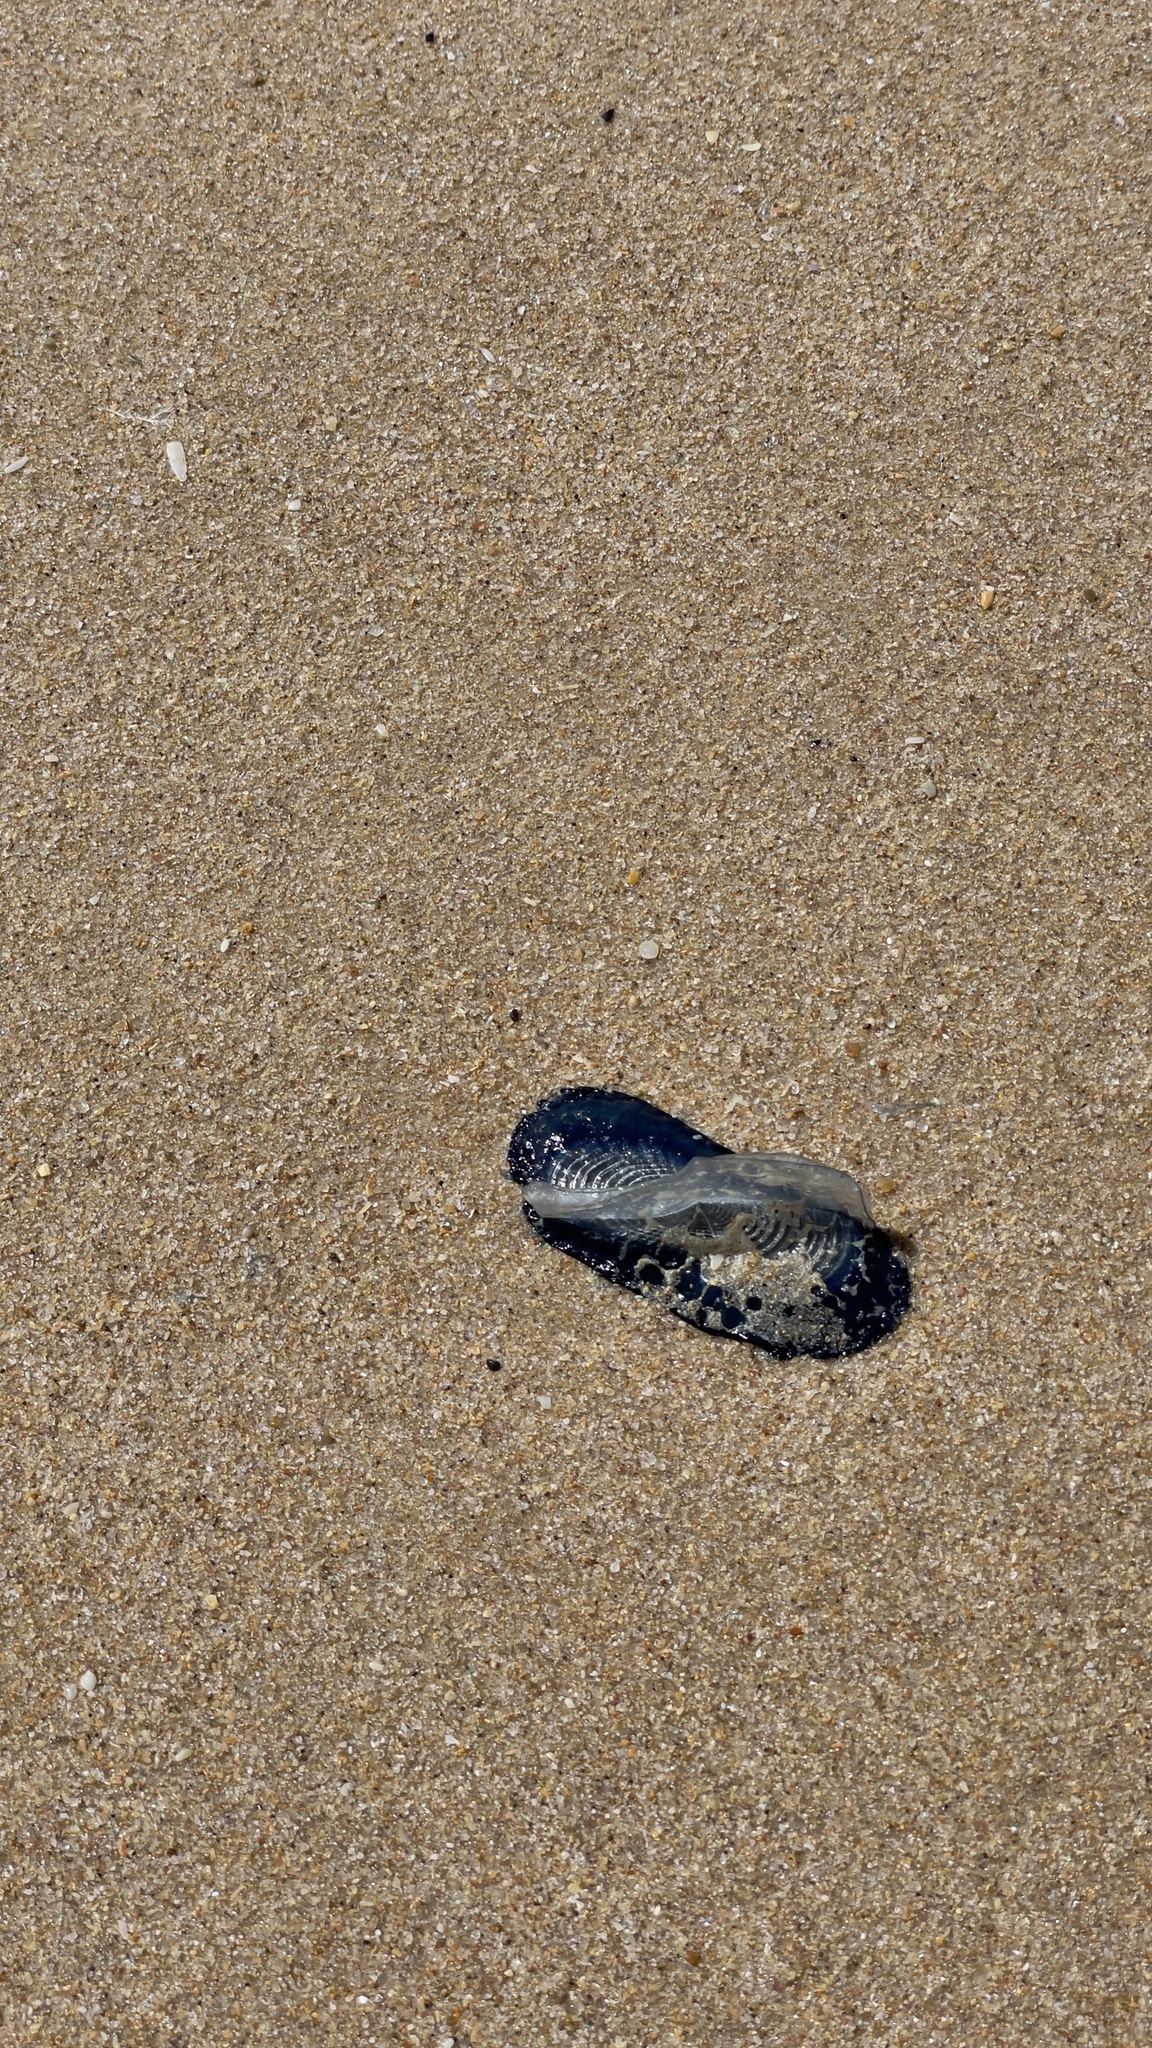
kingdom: Animalia
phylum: Cnidaria
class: Hydrozoa
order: Anthoathecata
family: Porpitidae
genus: Velella
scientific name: Velella velella
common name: By-the-wind-sailor
